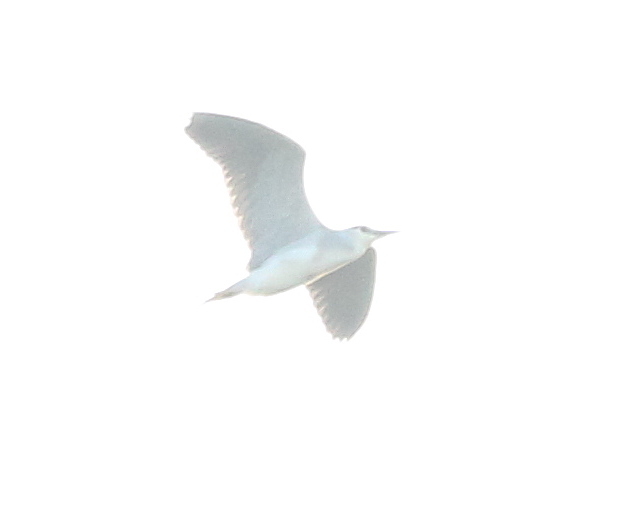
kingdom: Animalia
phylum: Chordata
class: Aves
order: Pelecaniformes
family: Ardeidae
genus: Nycticorax
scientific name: Nycticorax nycticorax
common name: Black-crowned night heron
